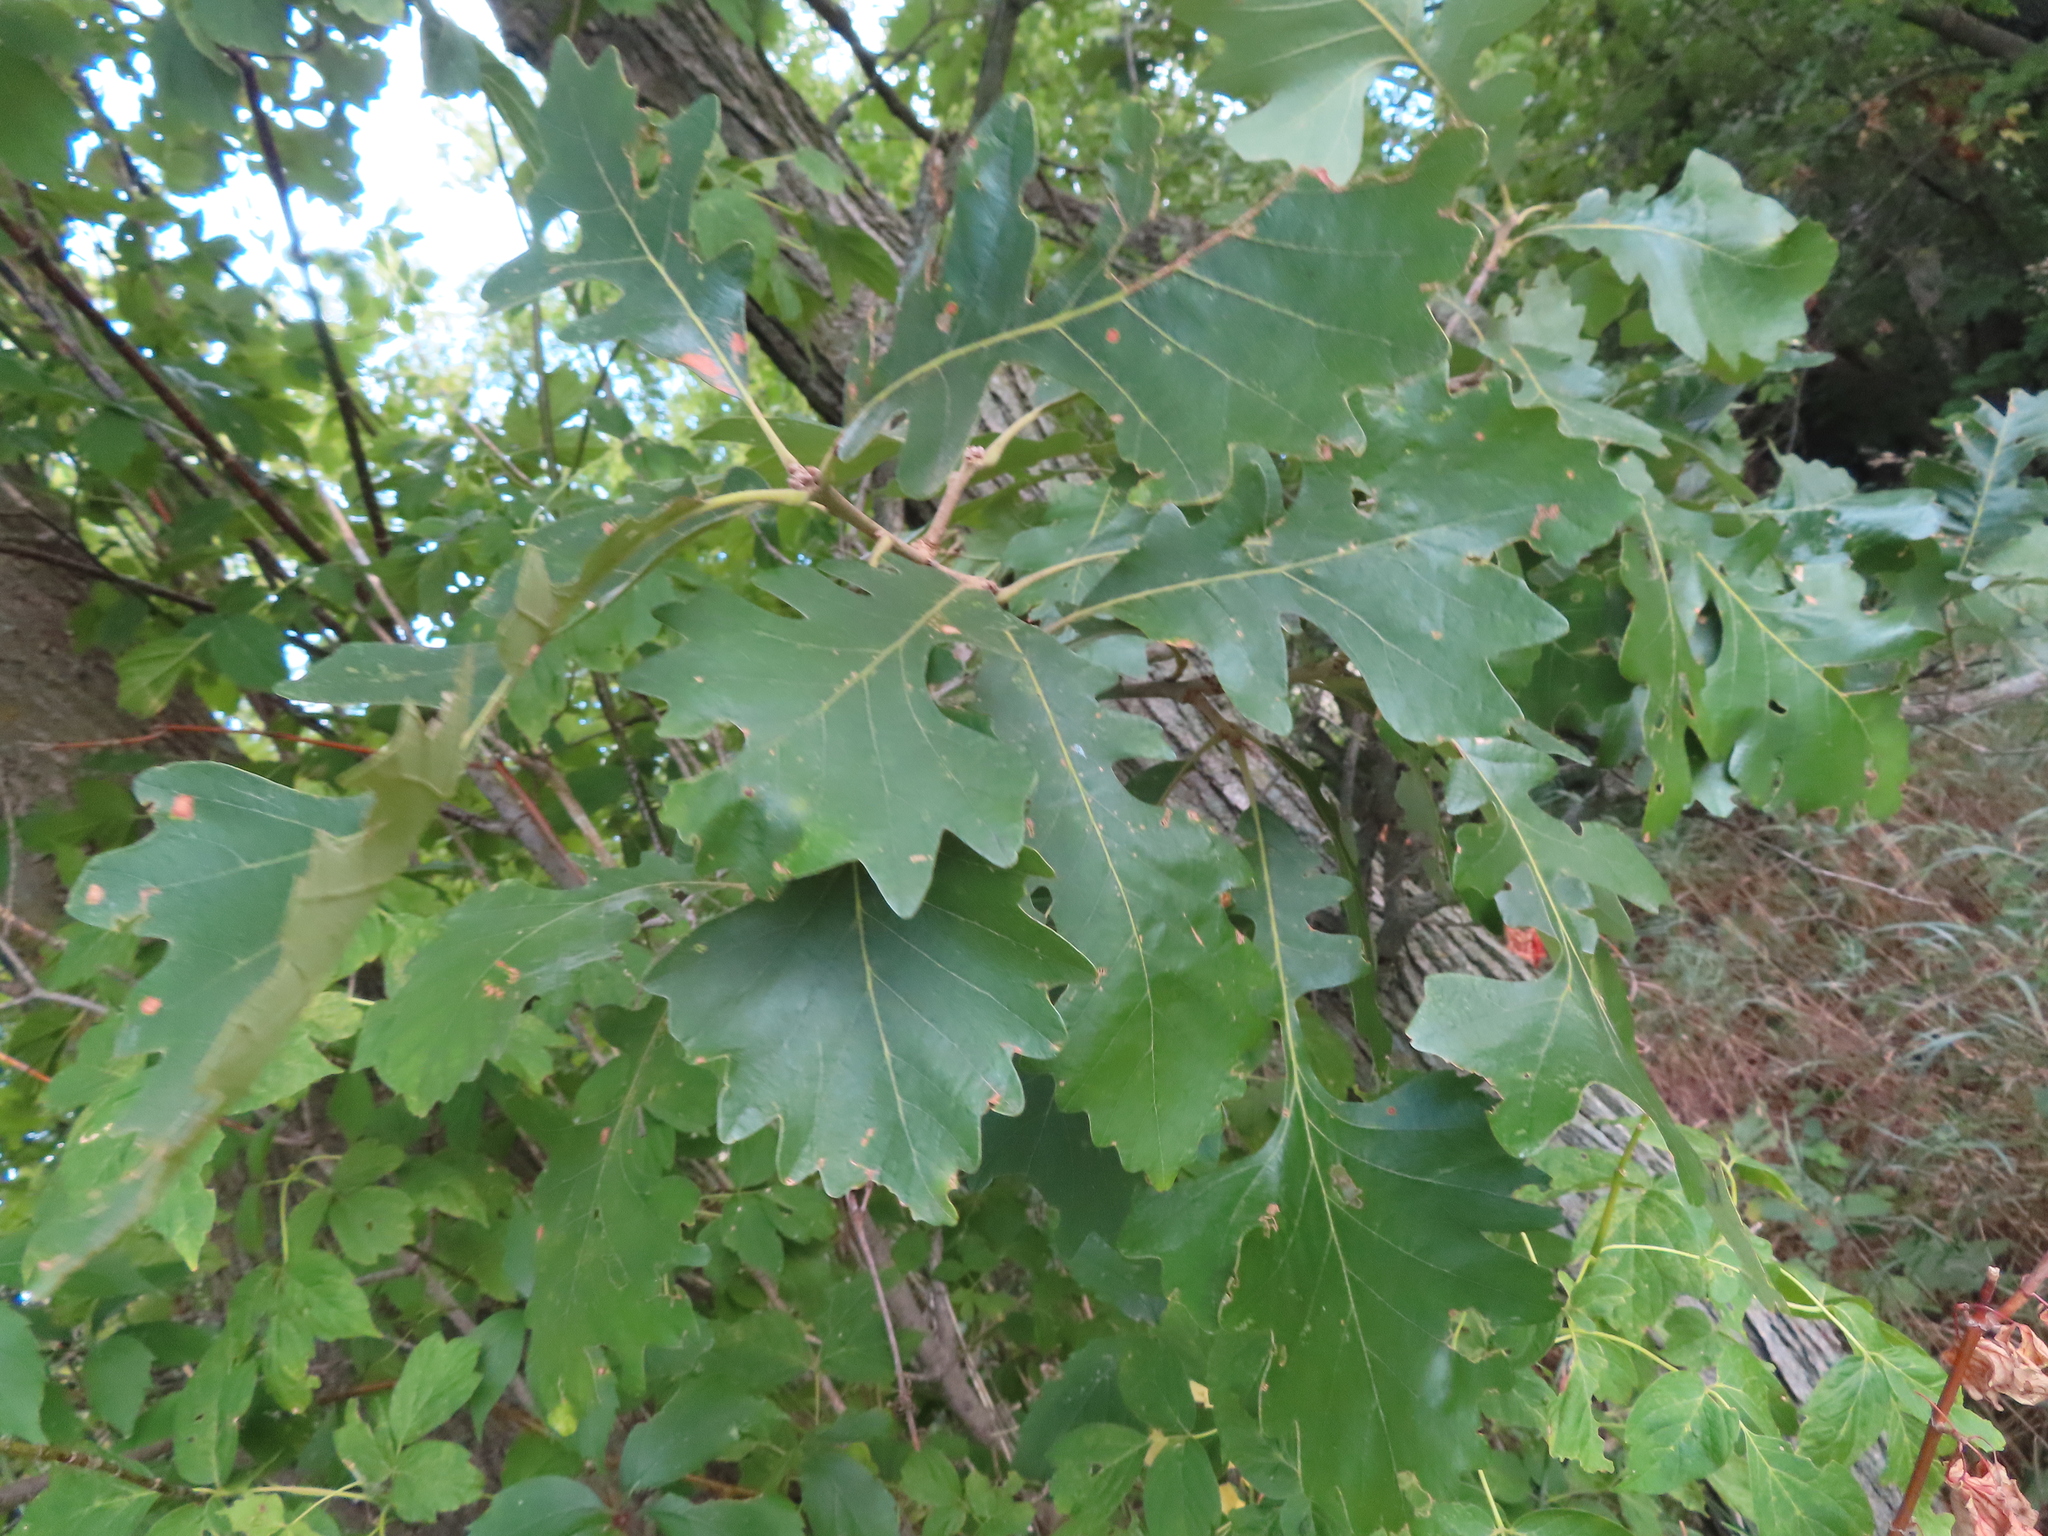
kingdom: Plantae
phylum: Tracheophyta
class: Magnoliopsida
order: Fagales
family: Fagaceae
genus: Quercus
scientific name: Quercus macrocarpa
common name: Bur oak
